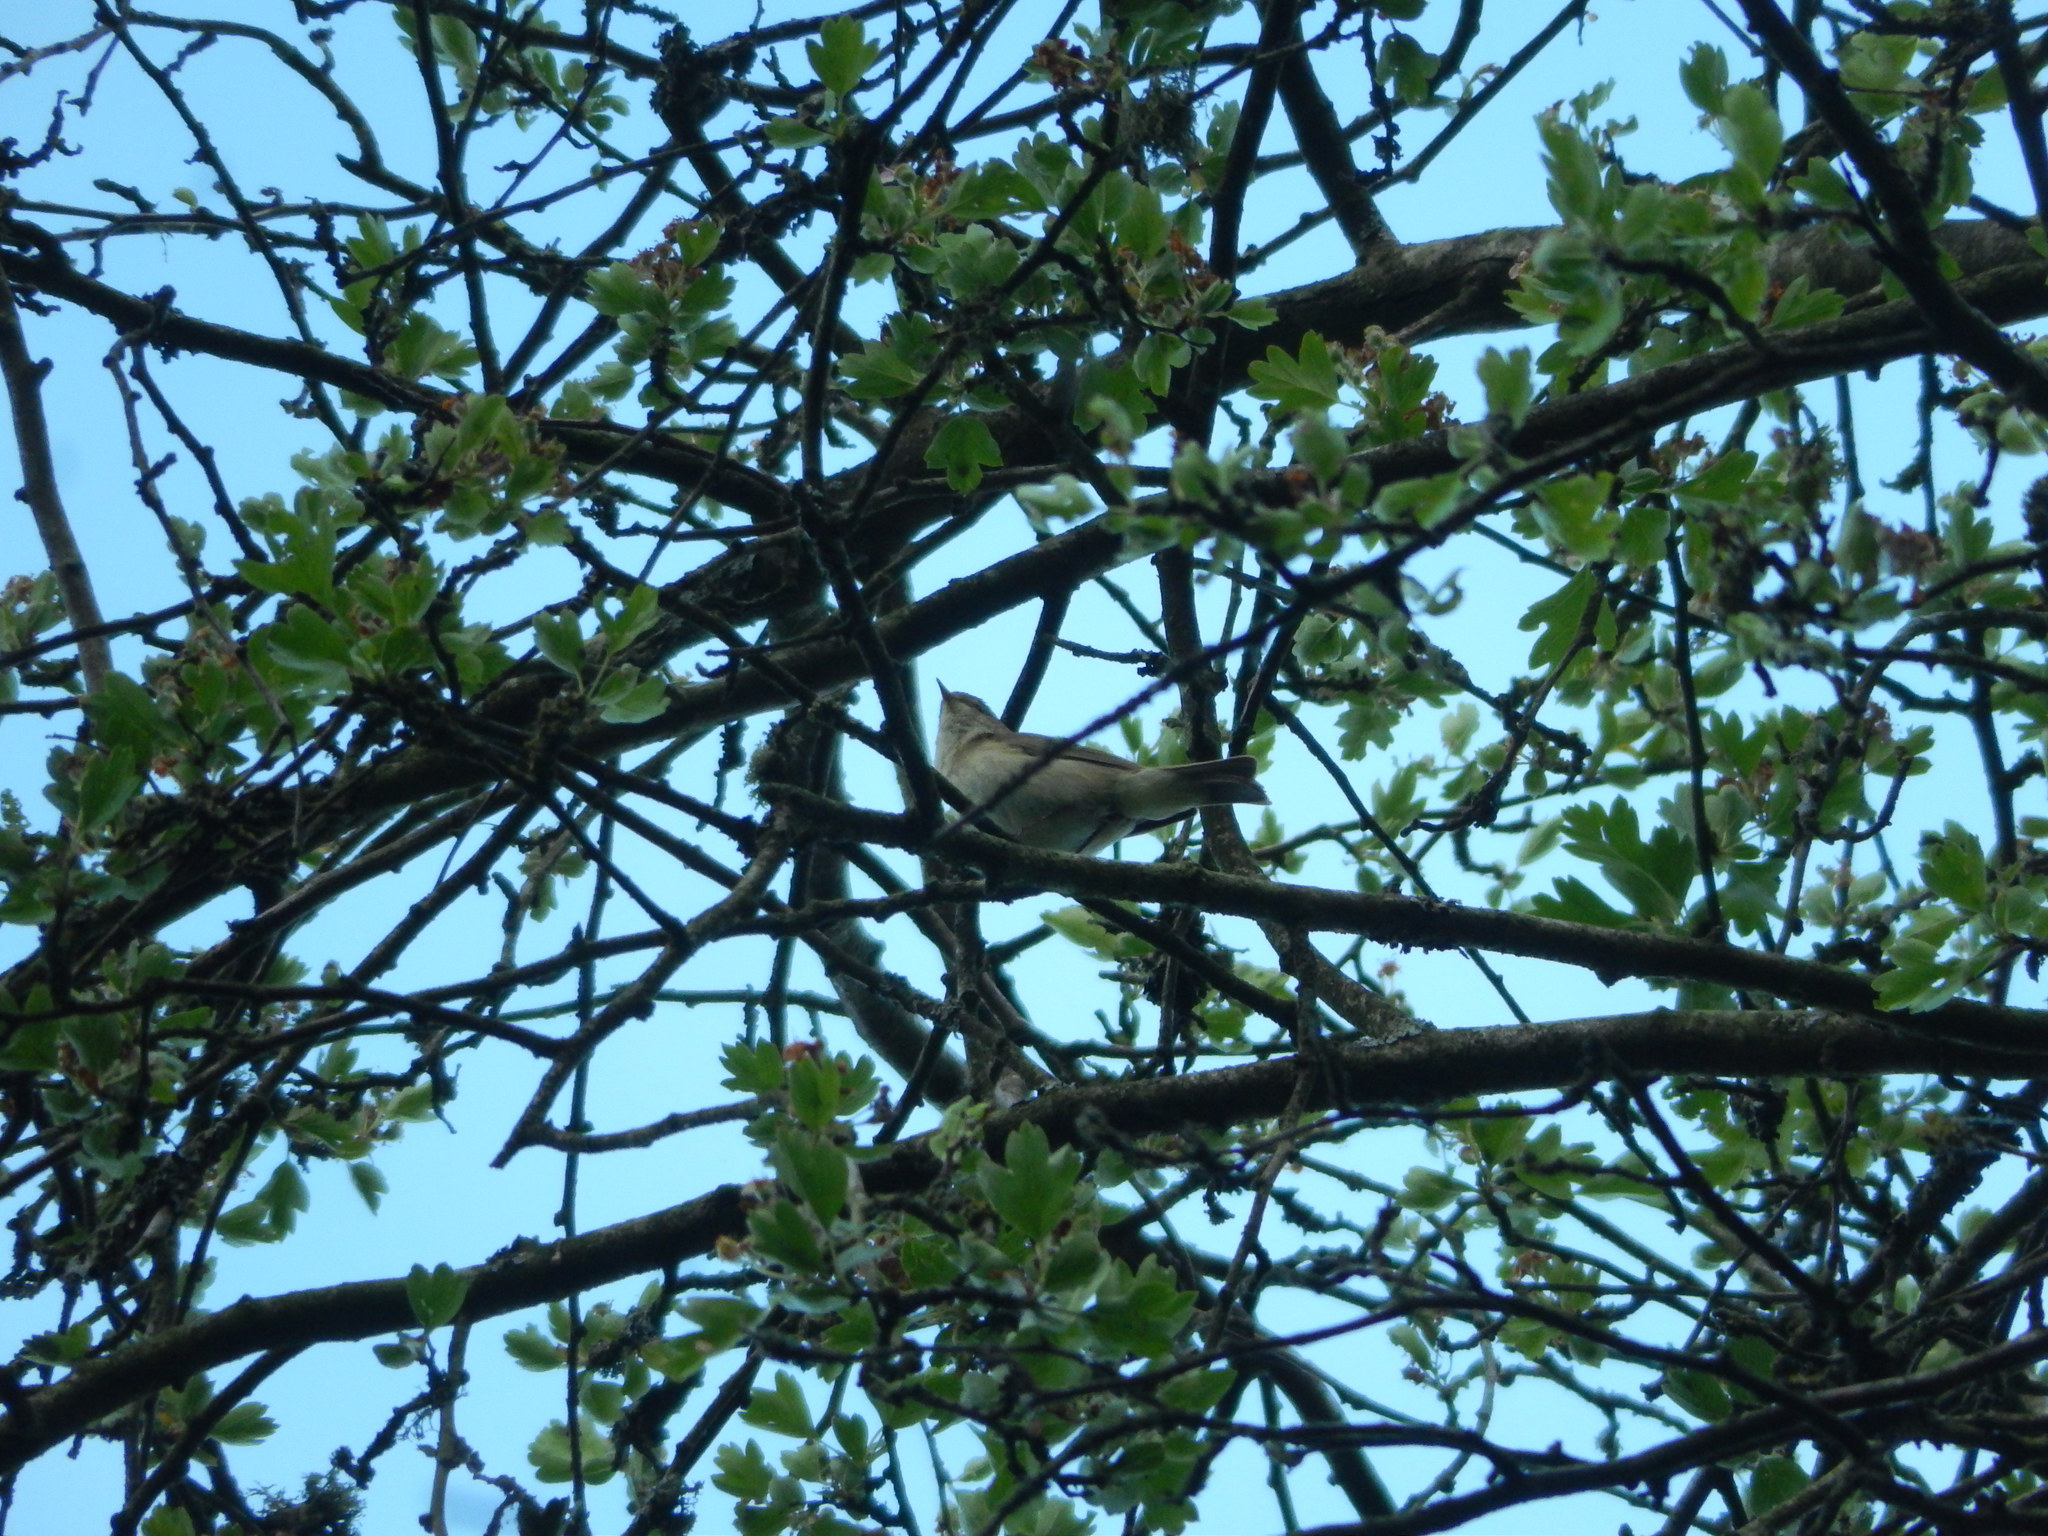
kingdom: Animalia
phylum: Chordata
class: Aves
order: Passeriformes
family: Phylloscopidae
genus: Phylloscopus
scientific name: Phylloscopus collybita
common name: Common chiffchaff
